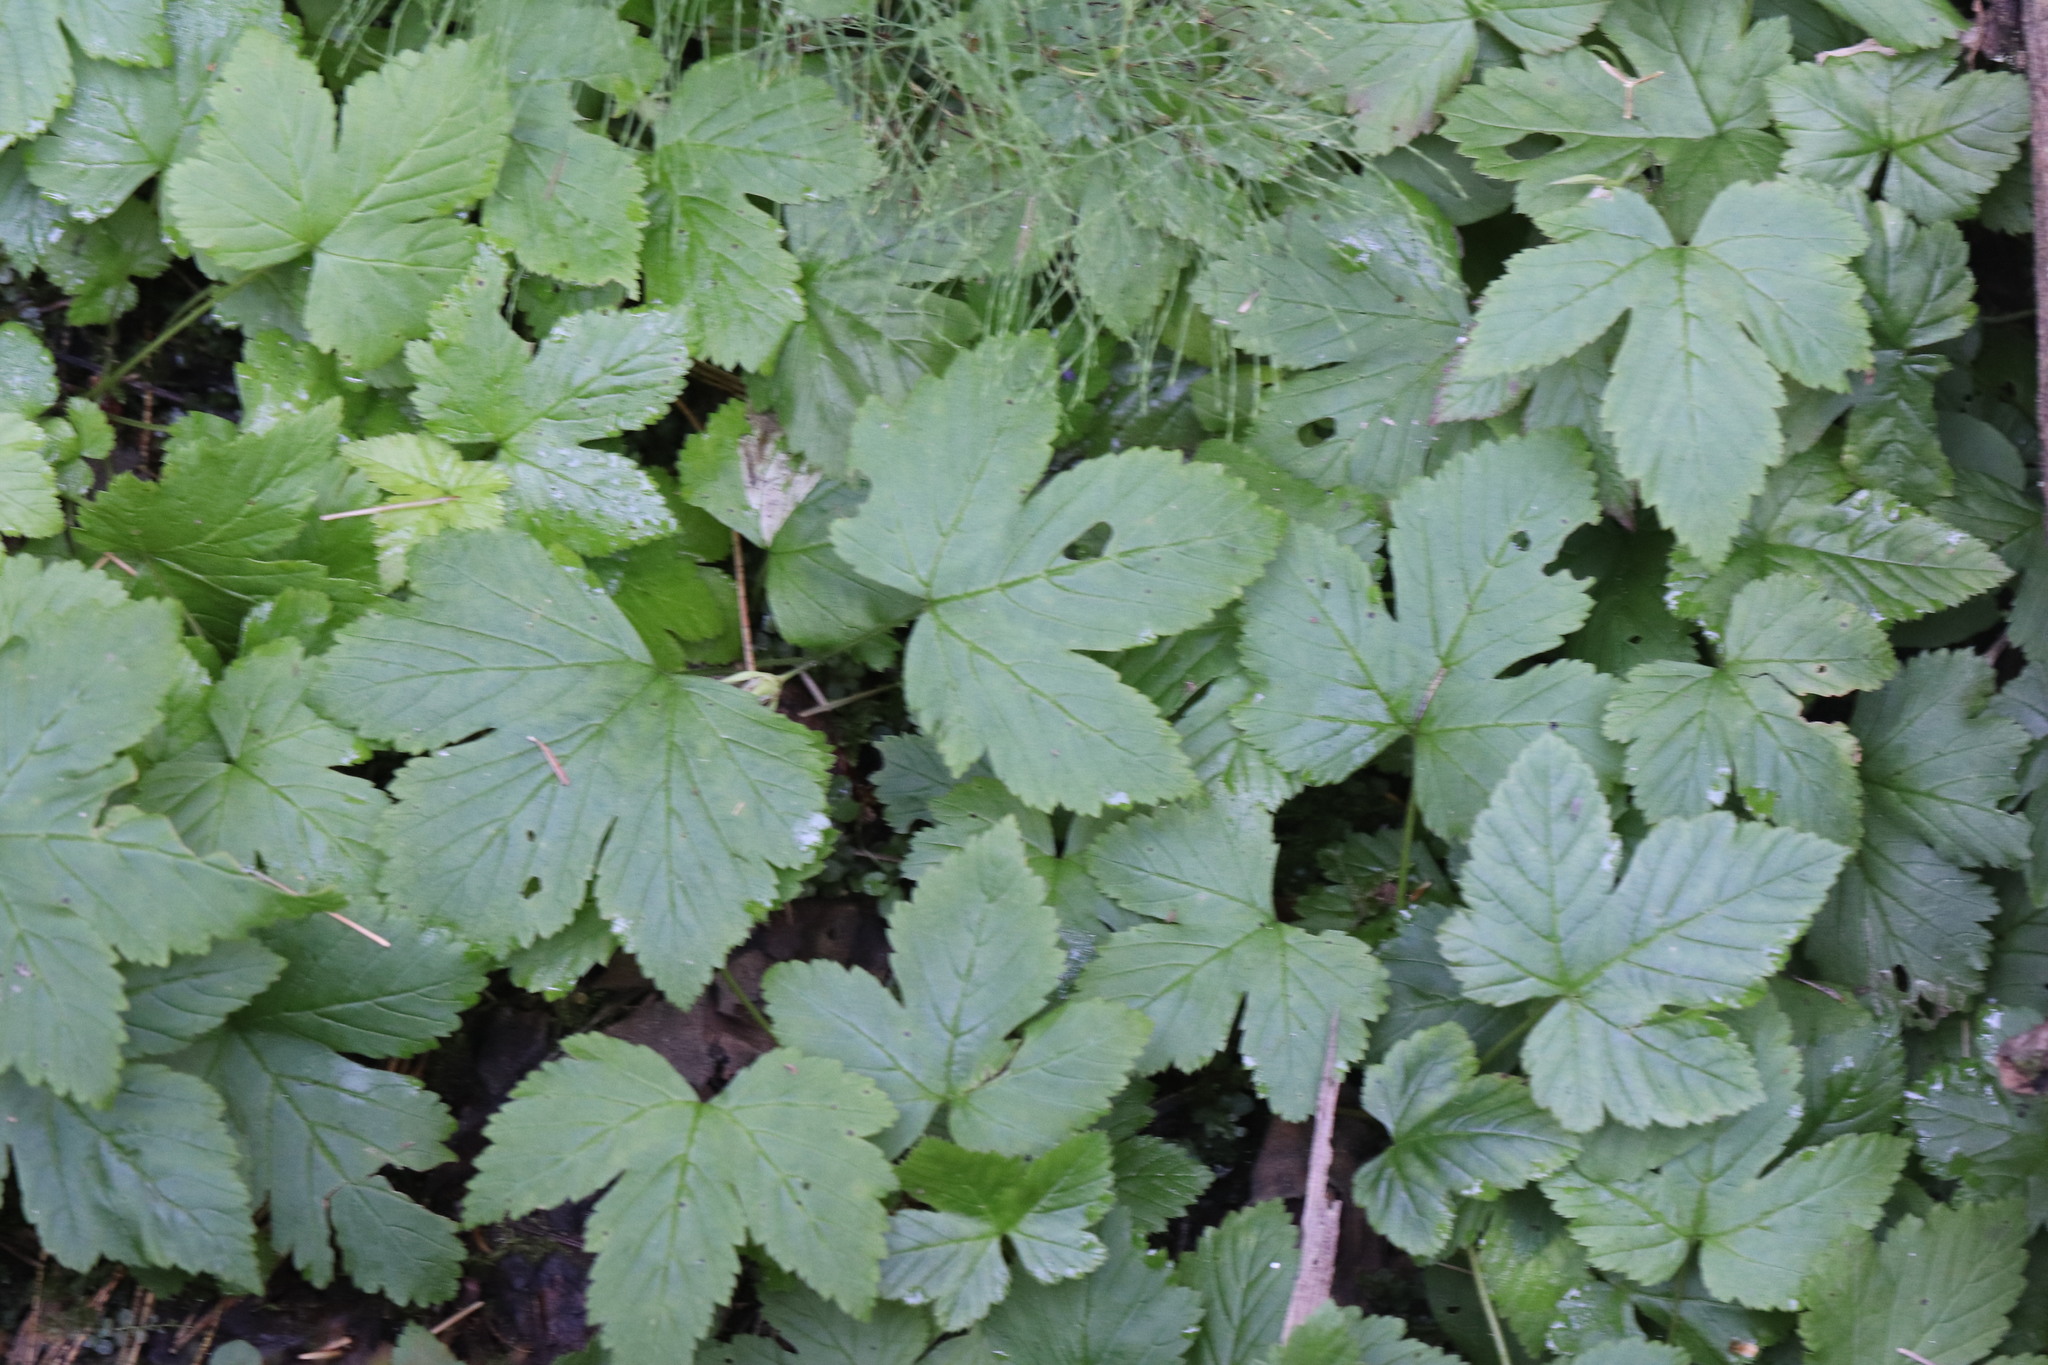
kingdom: Plantae
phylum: Tracheophyta
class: Magnoliopsida
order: Rosales
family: Rosaceae
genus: Rubus
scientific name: Rubus humulifolius
